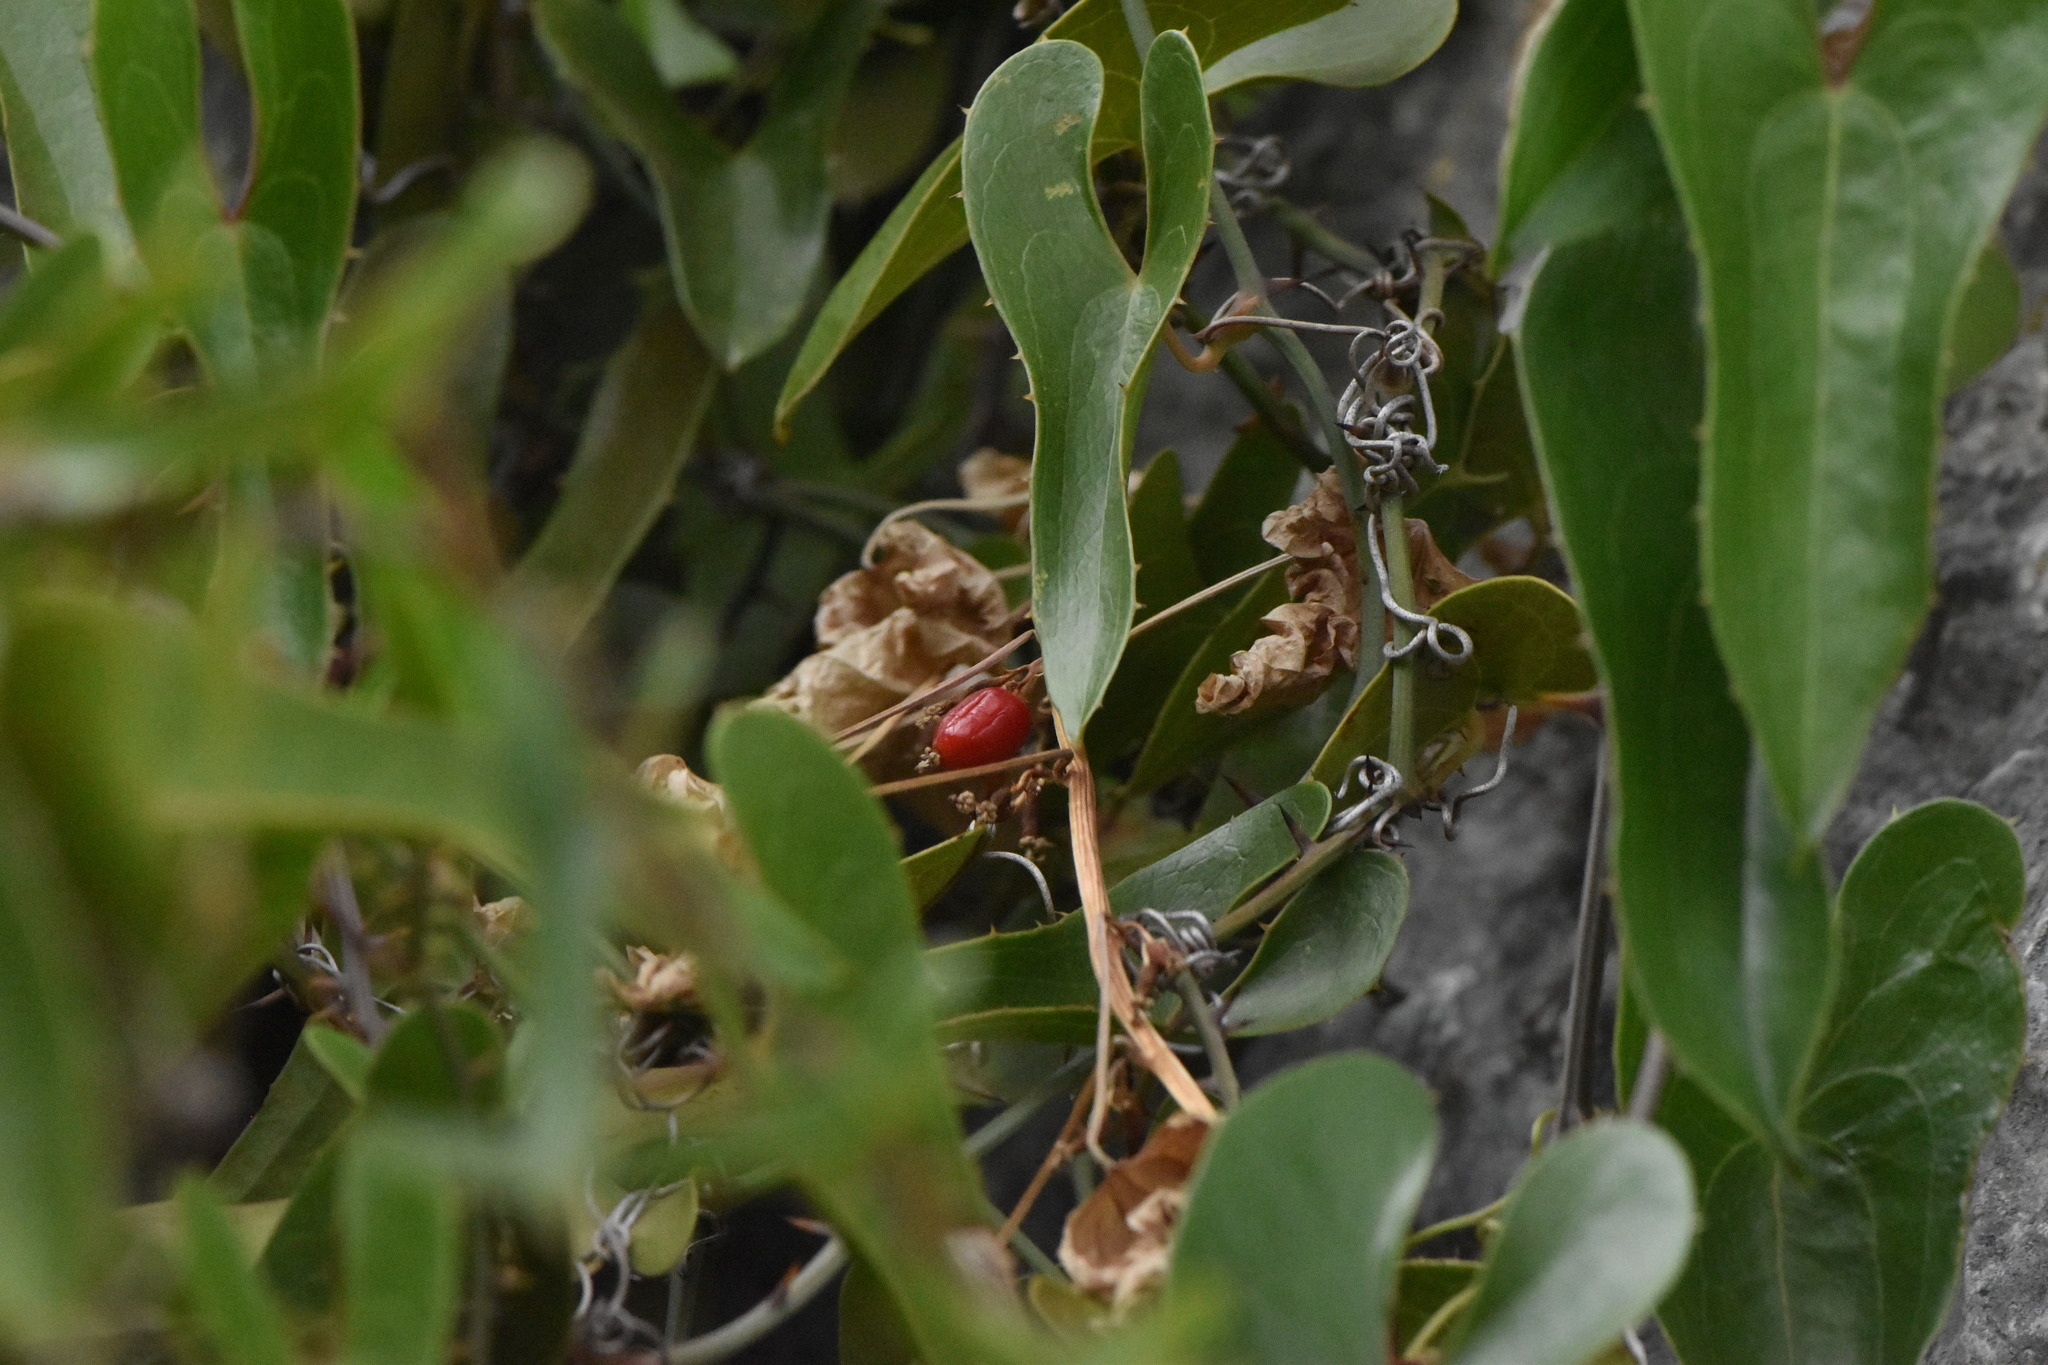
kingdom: Plantae
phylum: Tracheophyta
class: Liliopsida
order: Liliales
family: Smilacaceae
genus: Smilax
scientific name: Smilax aspera
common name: Common smilax
